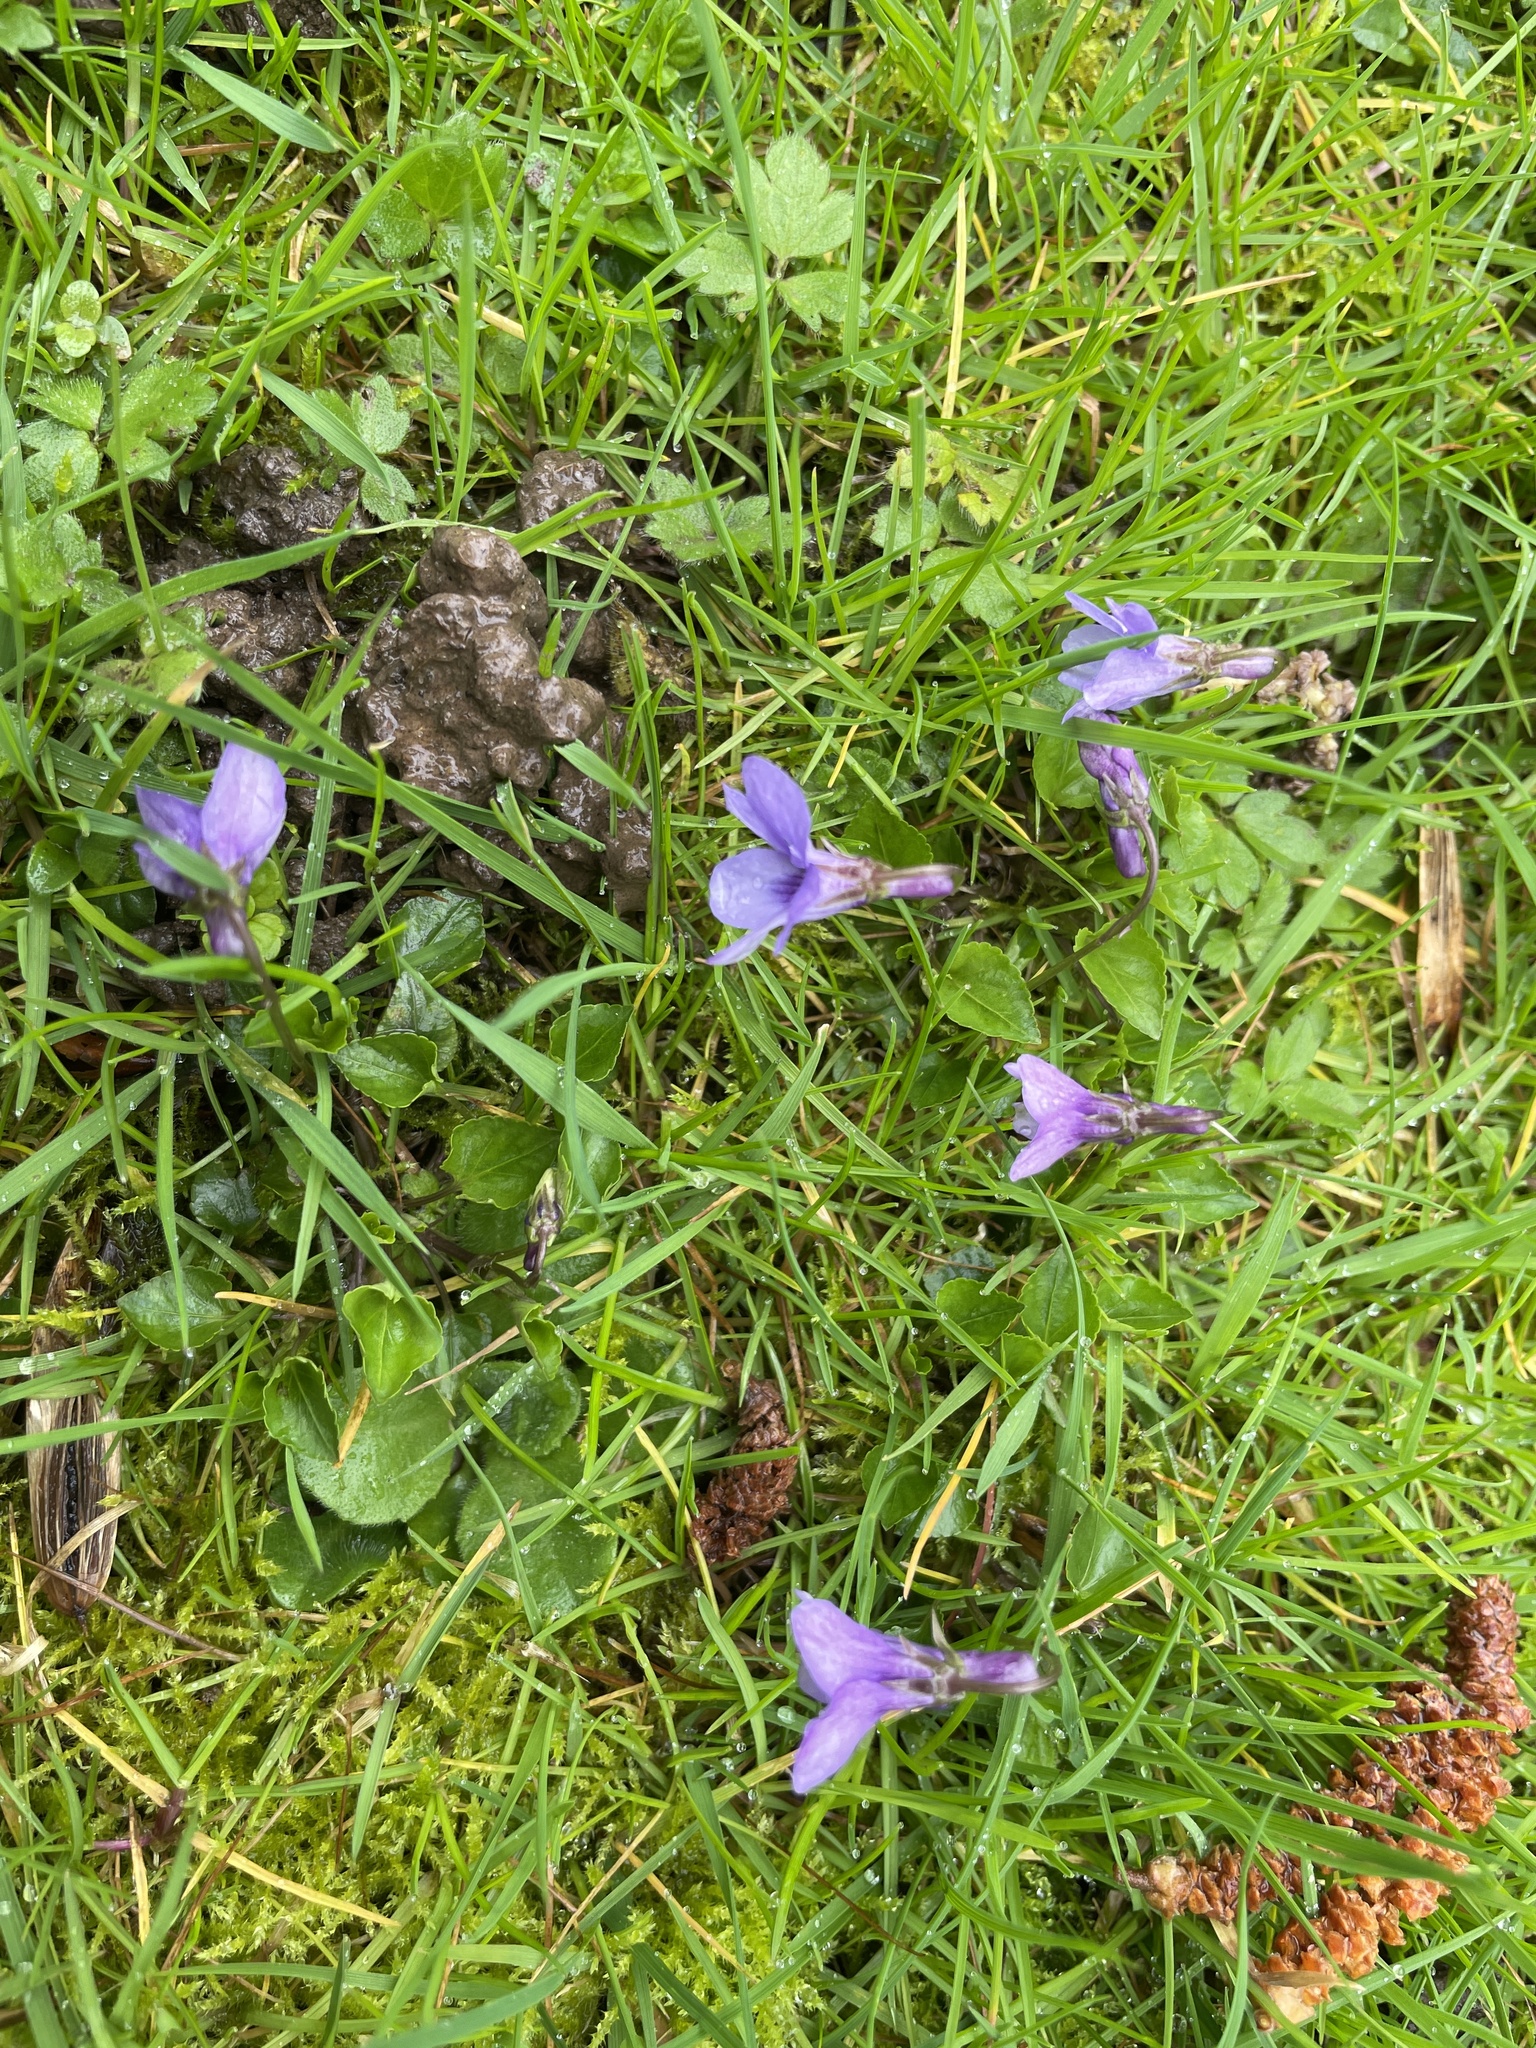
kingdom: Plantae
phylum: Tracheophyta
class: Magnoliopsida
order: Malpighiales
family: Violaceae
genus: Viola
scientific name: Viola reichenbachiana
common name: Early dog-violet
